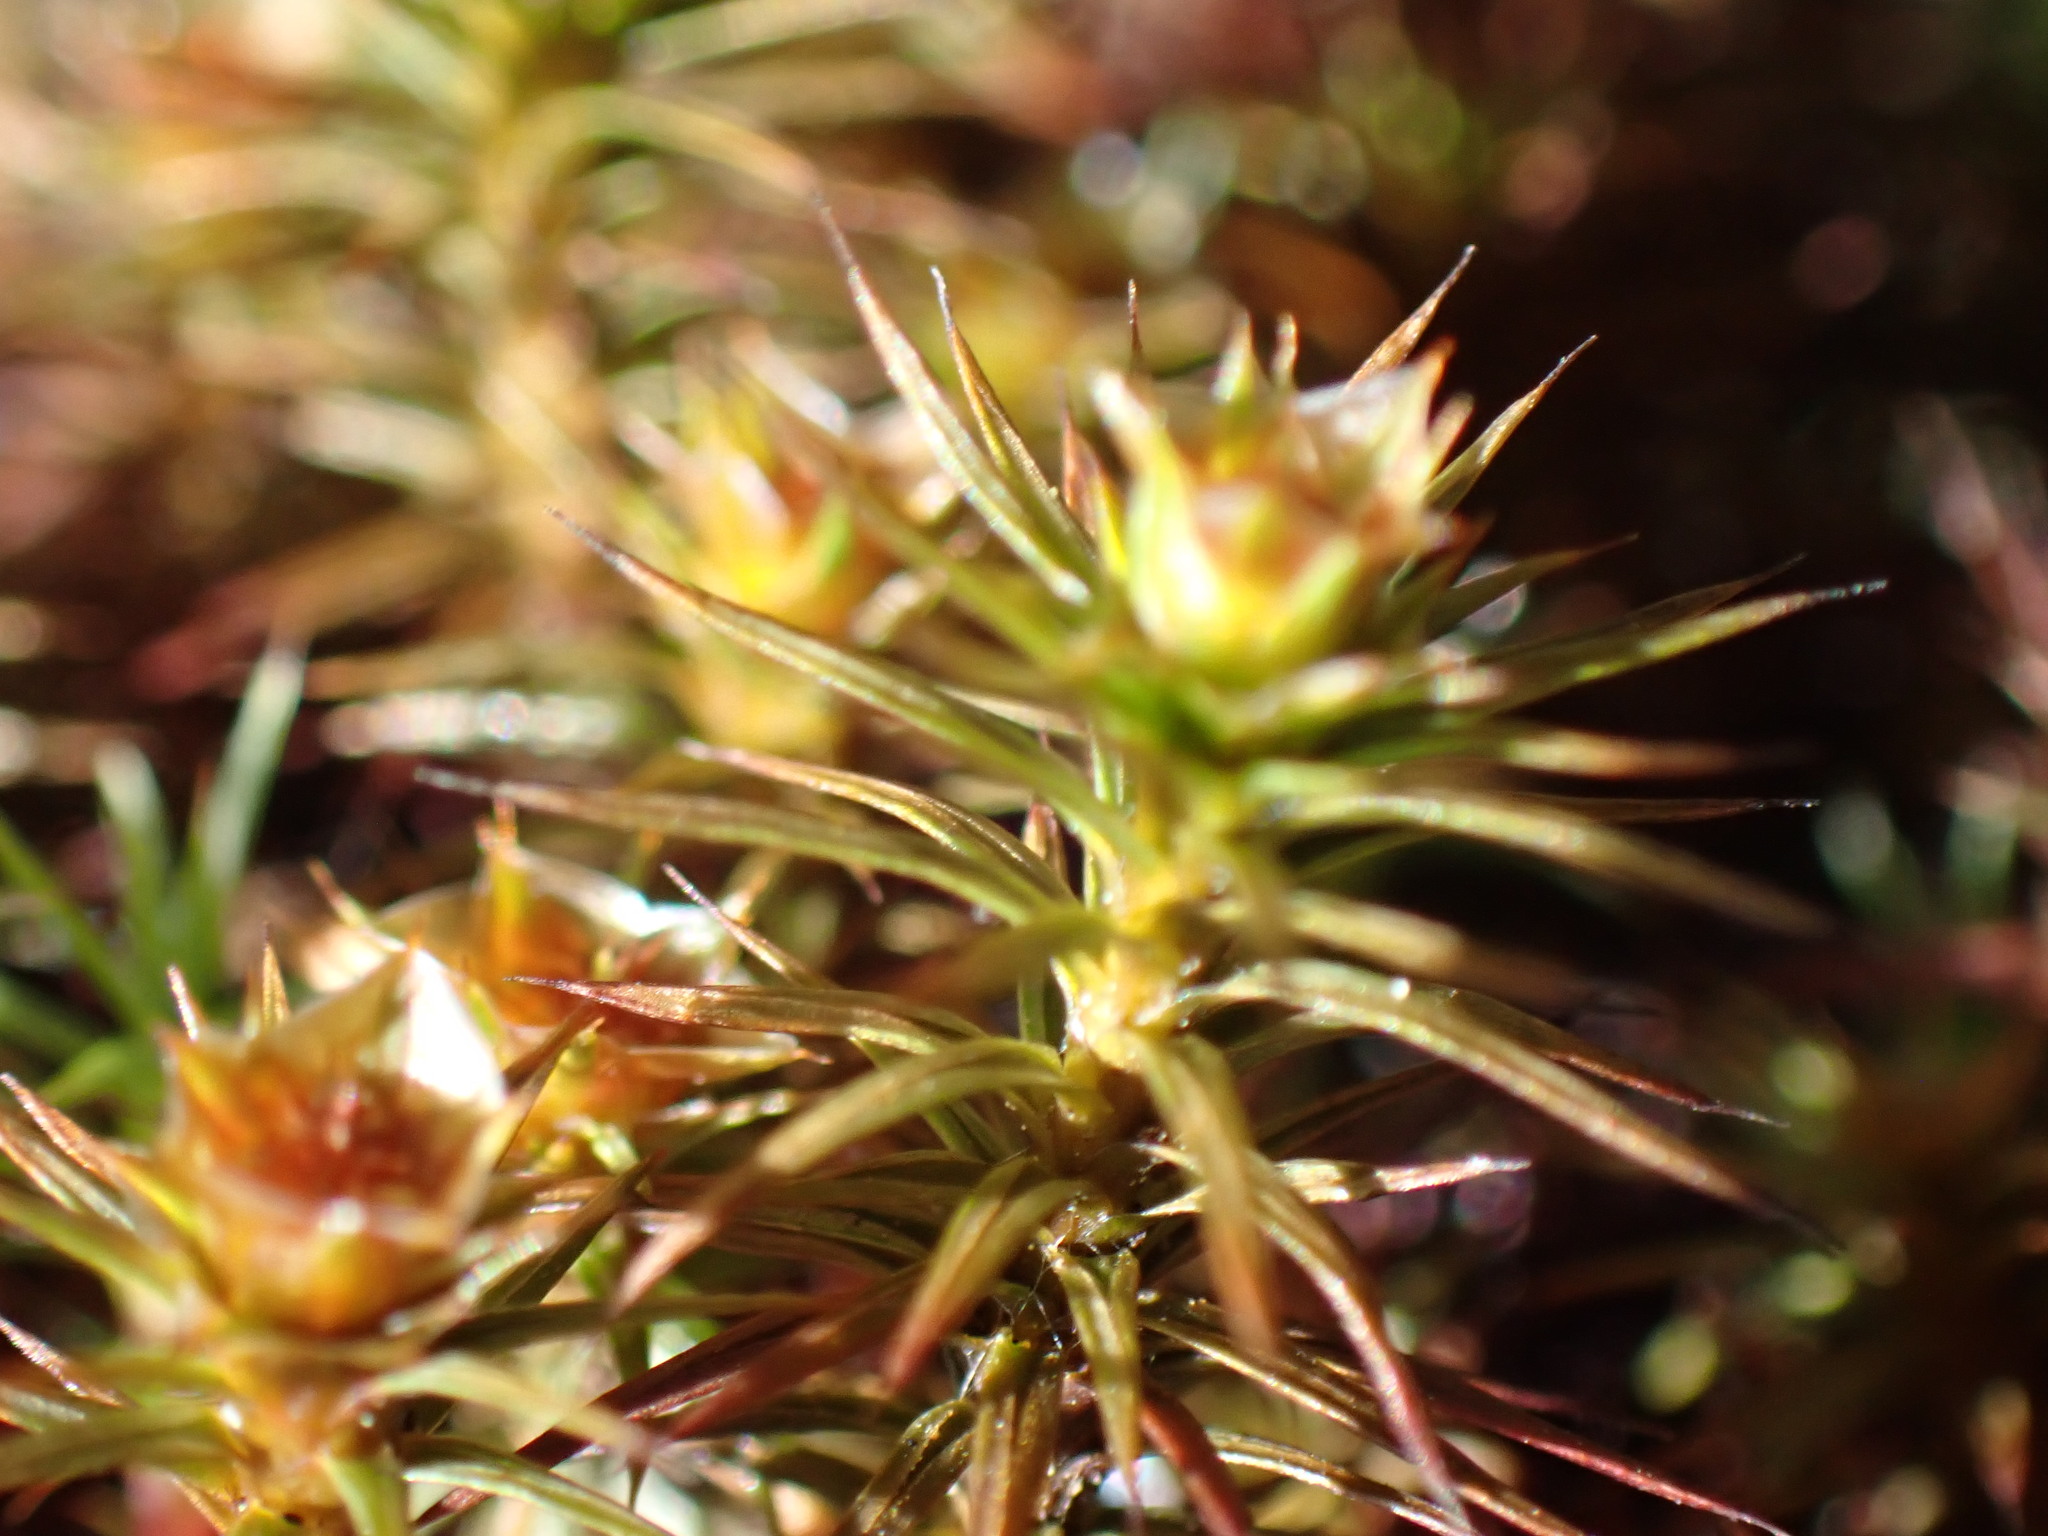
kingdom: Plantae
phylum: Bryophyta
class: Polytrichopsida
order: Polytrichales
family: Polytrichaceae
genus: Polytrichum
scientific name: Polytrichum juniperinum
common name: Juniper haircap moss
